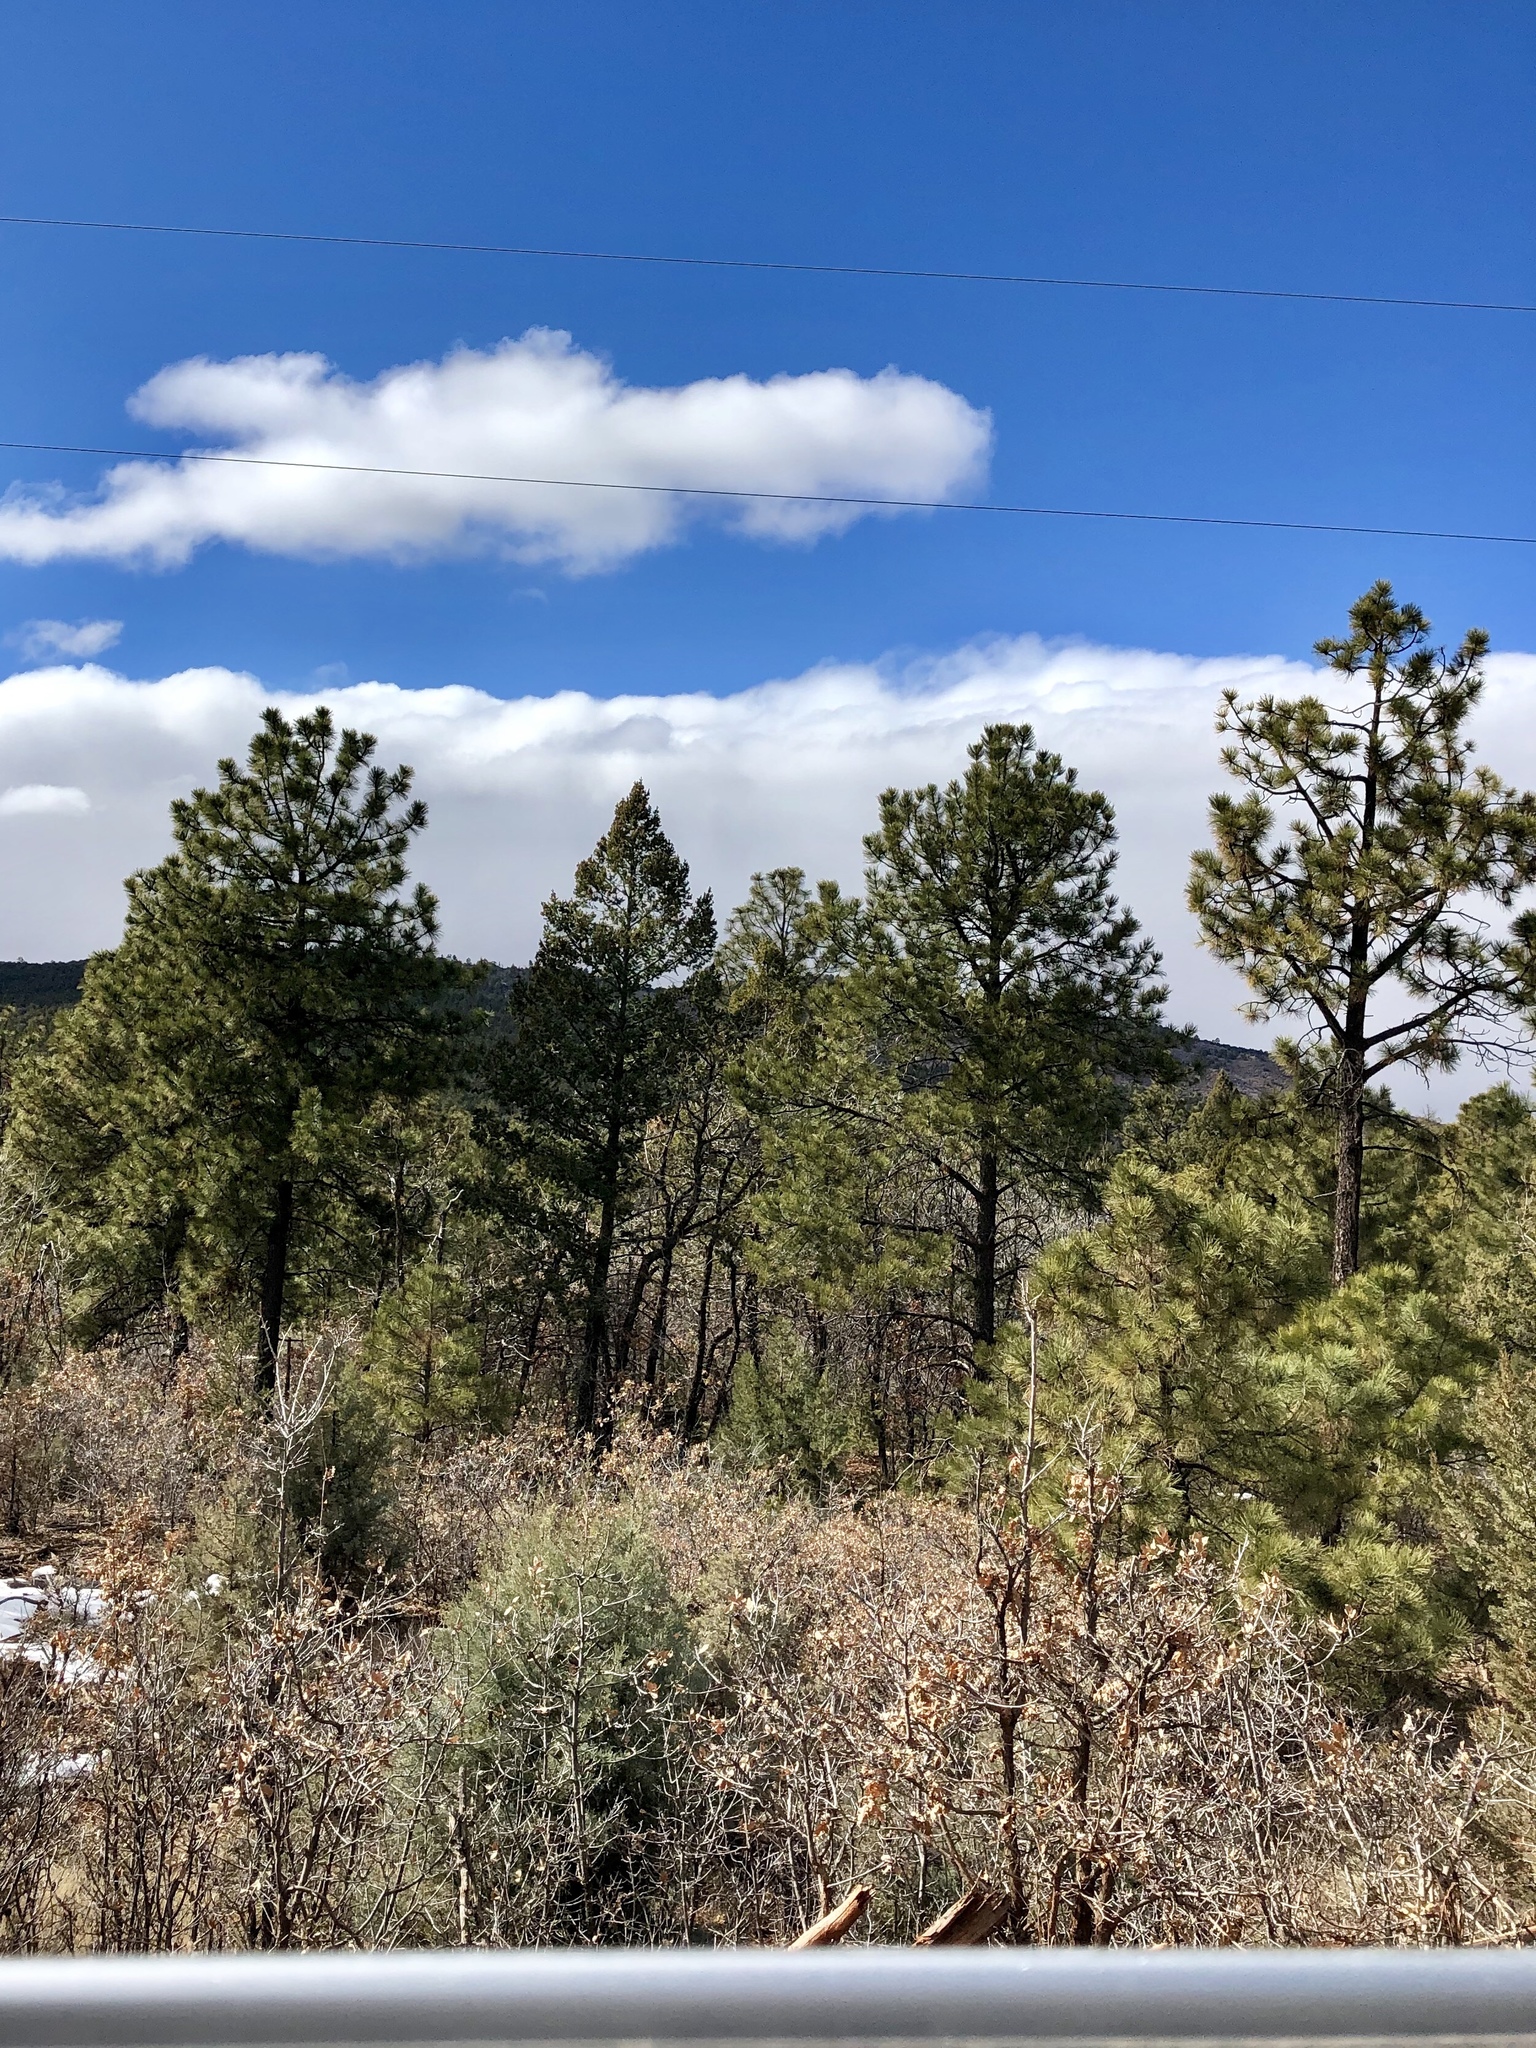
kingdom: Plantae
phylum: Tracheophyta
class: Pinopsida
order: Pinales
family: Pinaceae
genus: Pinus
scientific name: Pinus ponderosa
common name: Western yellow-pine
